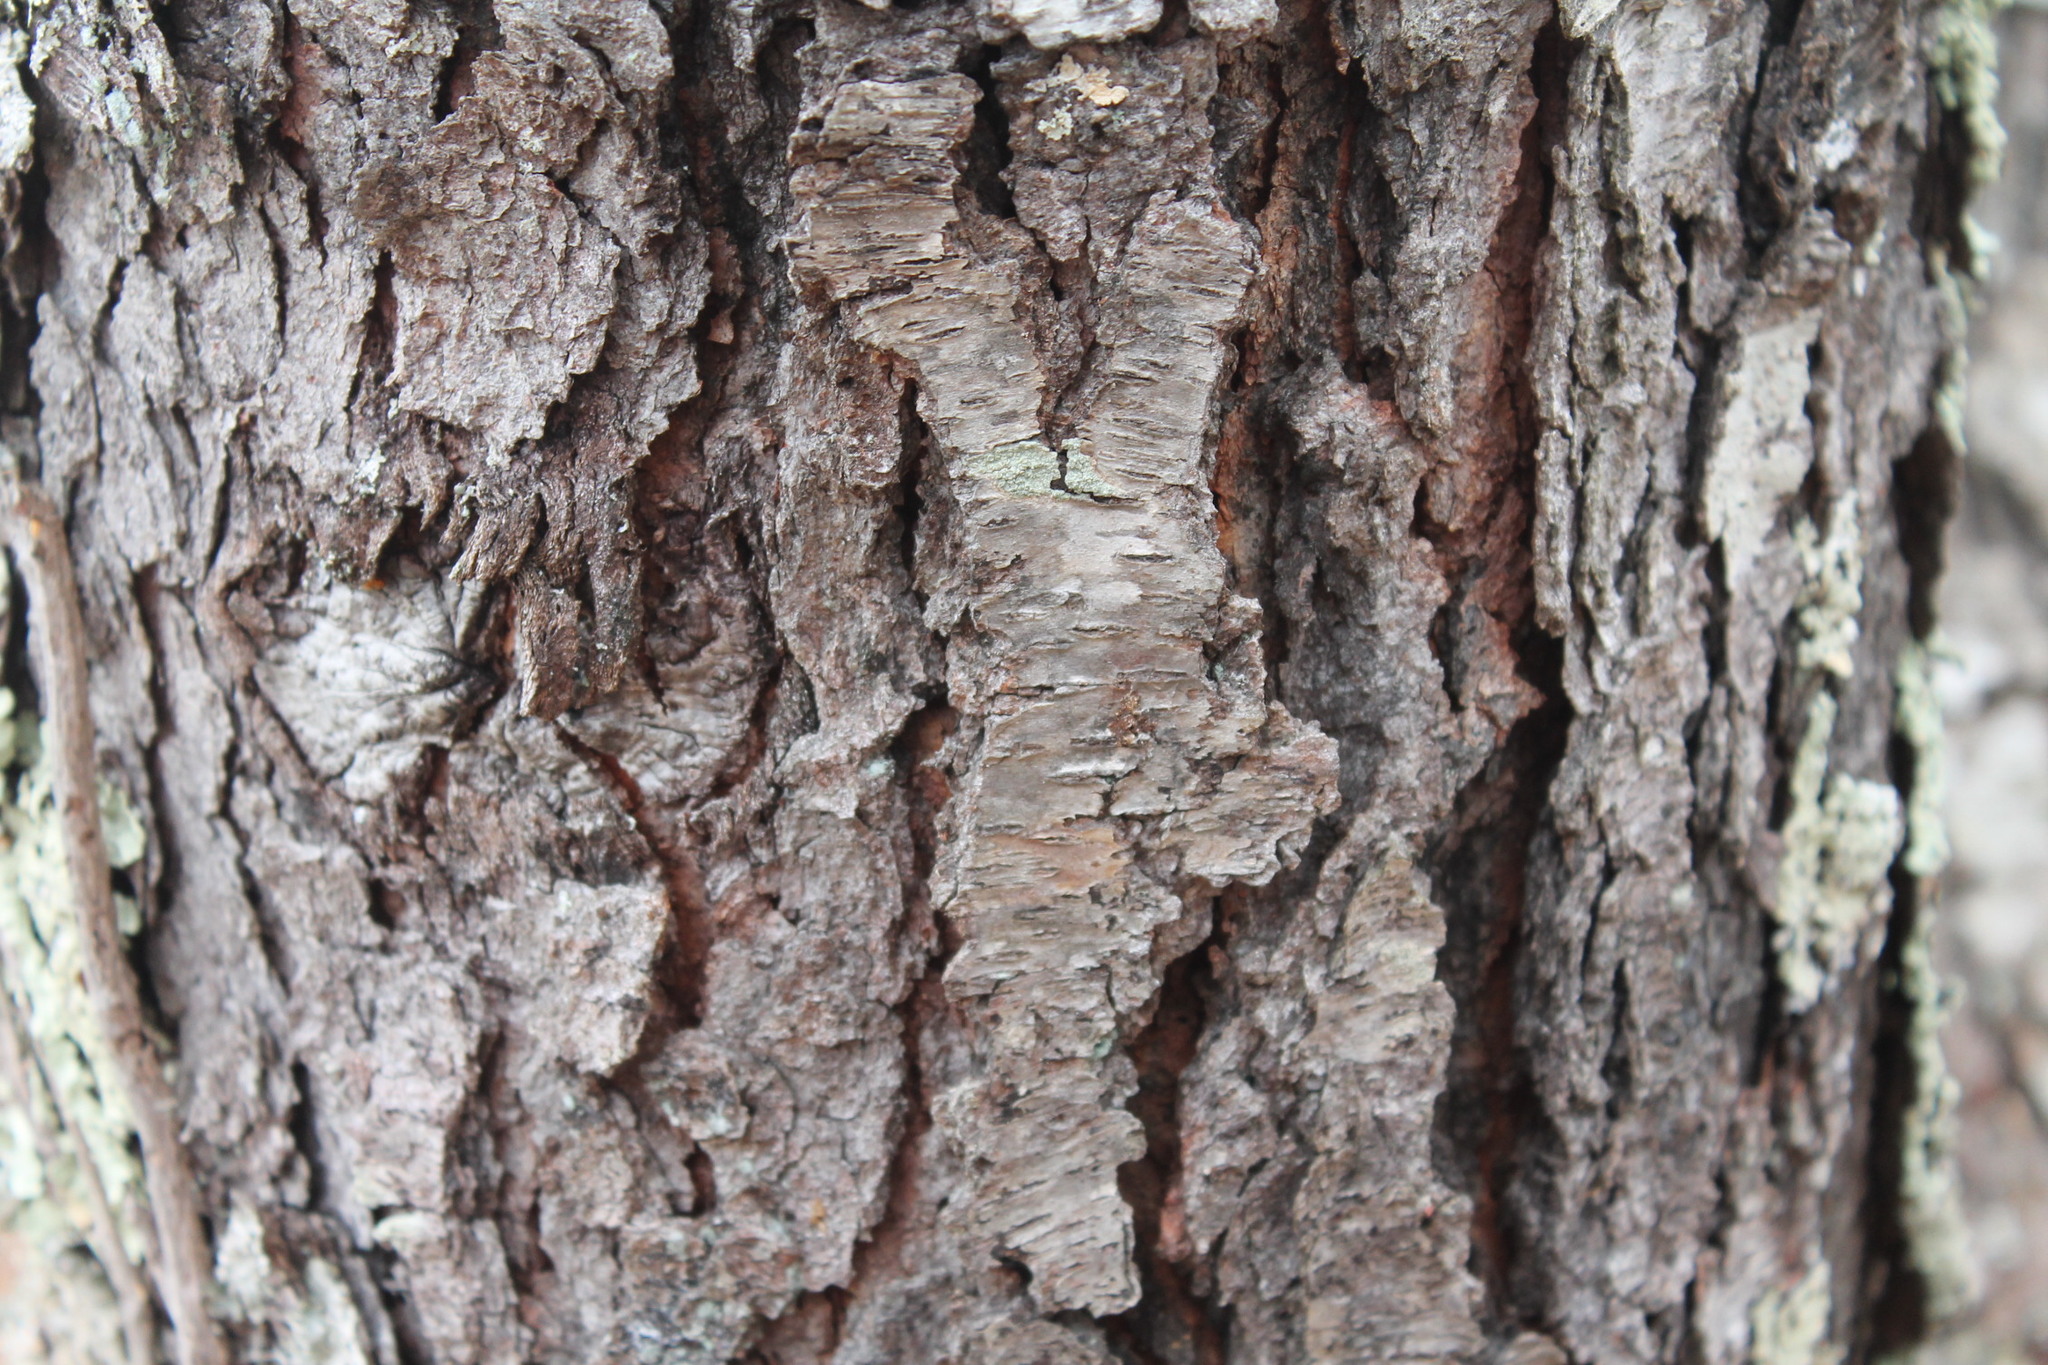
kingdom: Plantae
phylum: Tracheophyta
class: Magnoliopsida
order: Rosales
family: Rosaceae
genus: Prunus
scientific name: Prunus serotina
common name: Black cherry
